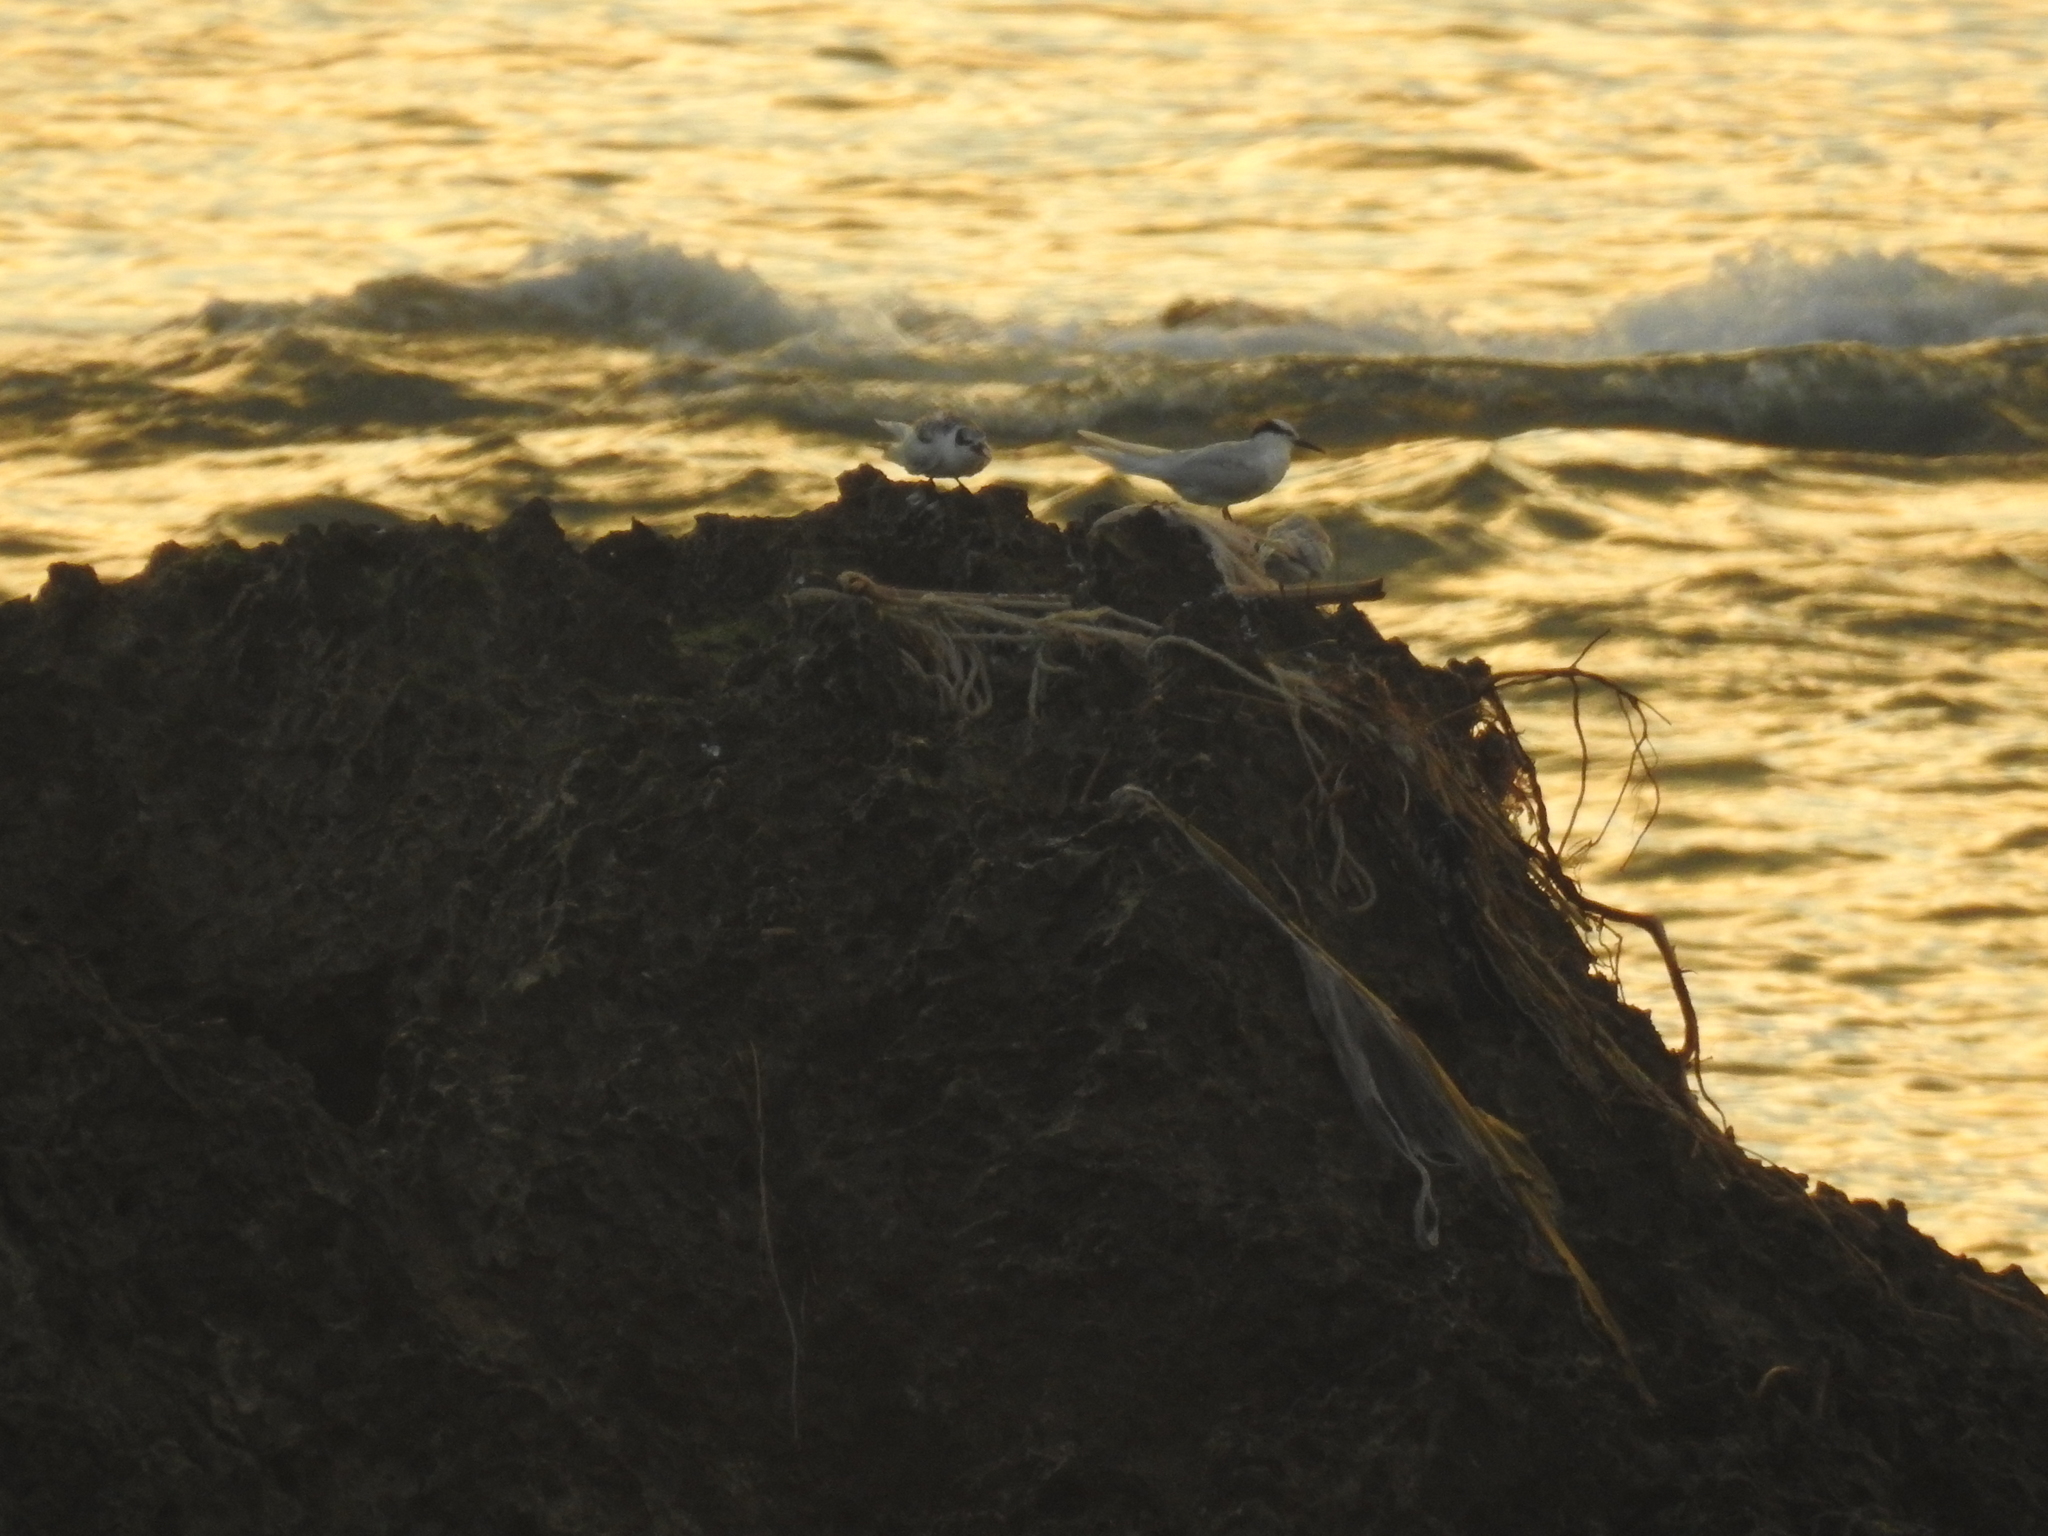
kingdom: Animalia
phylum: Chordata
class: Aves
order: Charadriiformes
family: Laridae
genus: Sterna
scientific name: Sterna sumatrana
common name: Black-naped tern
